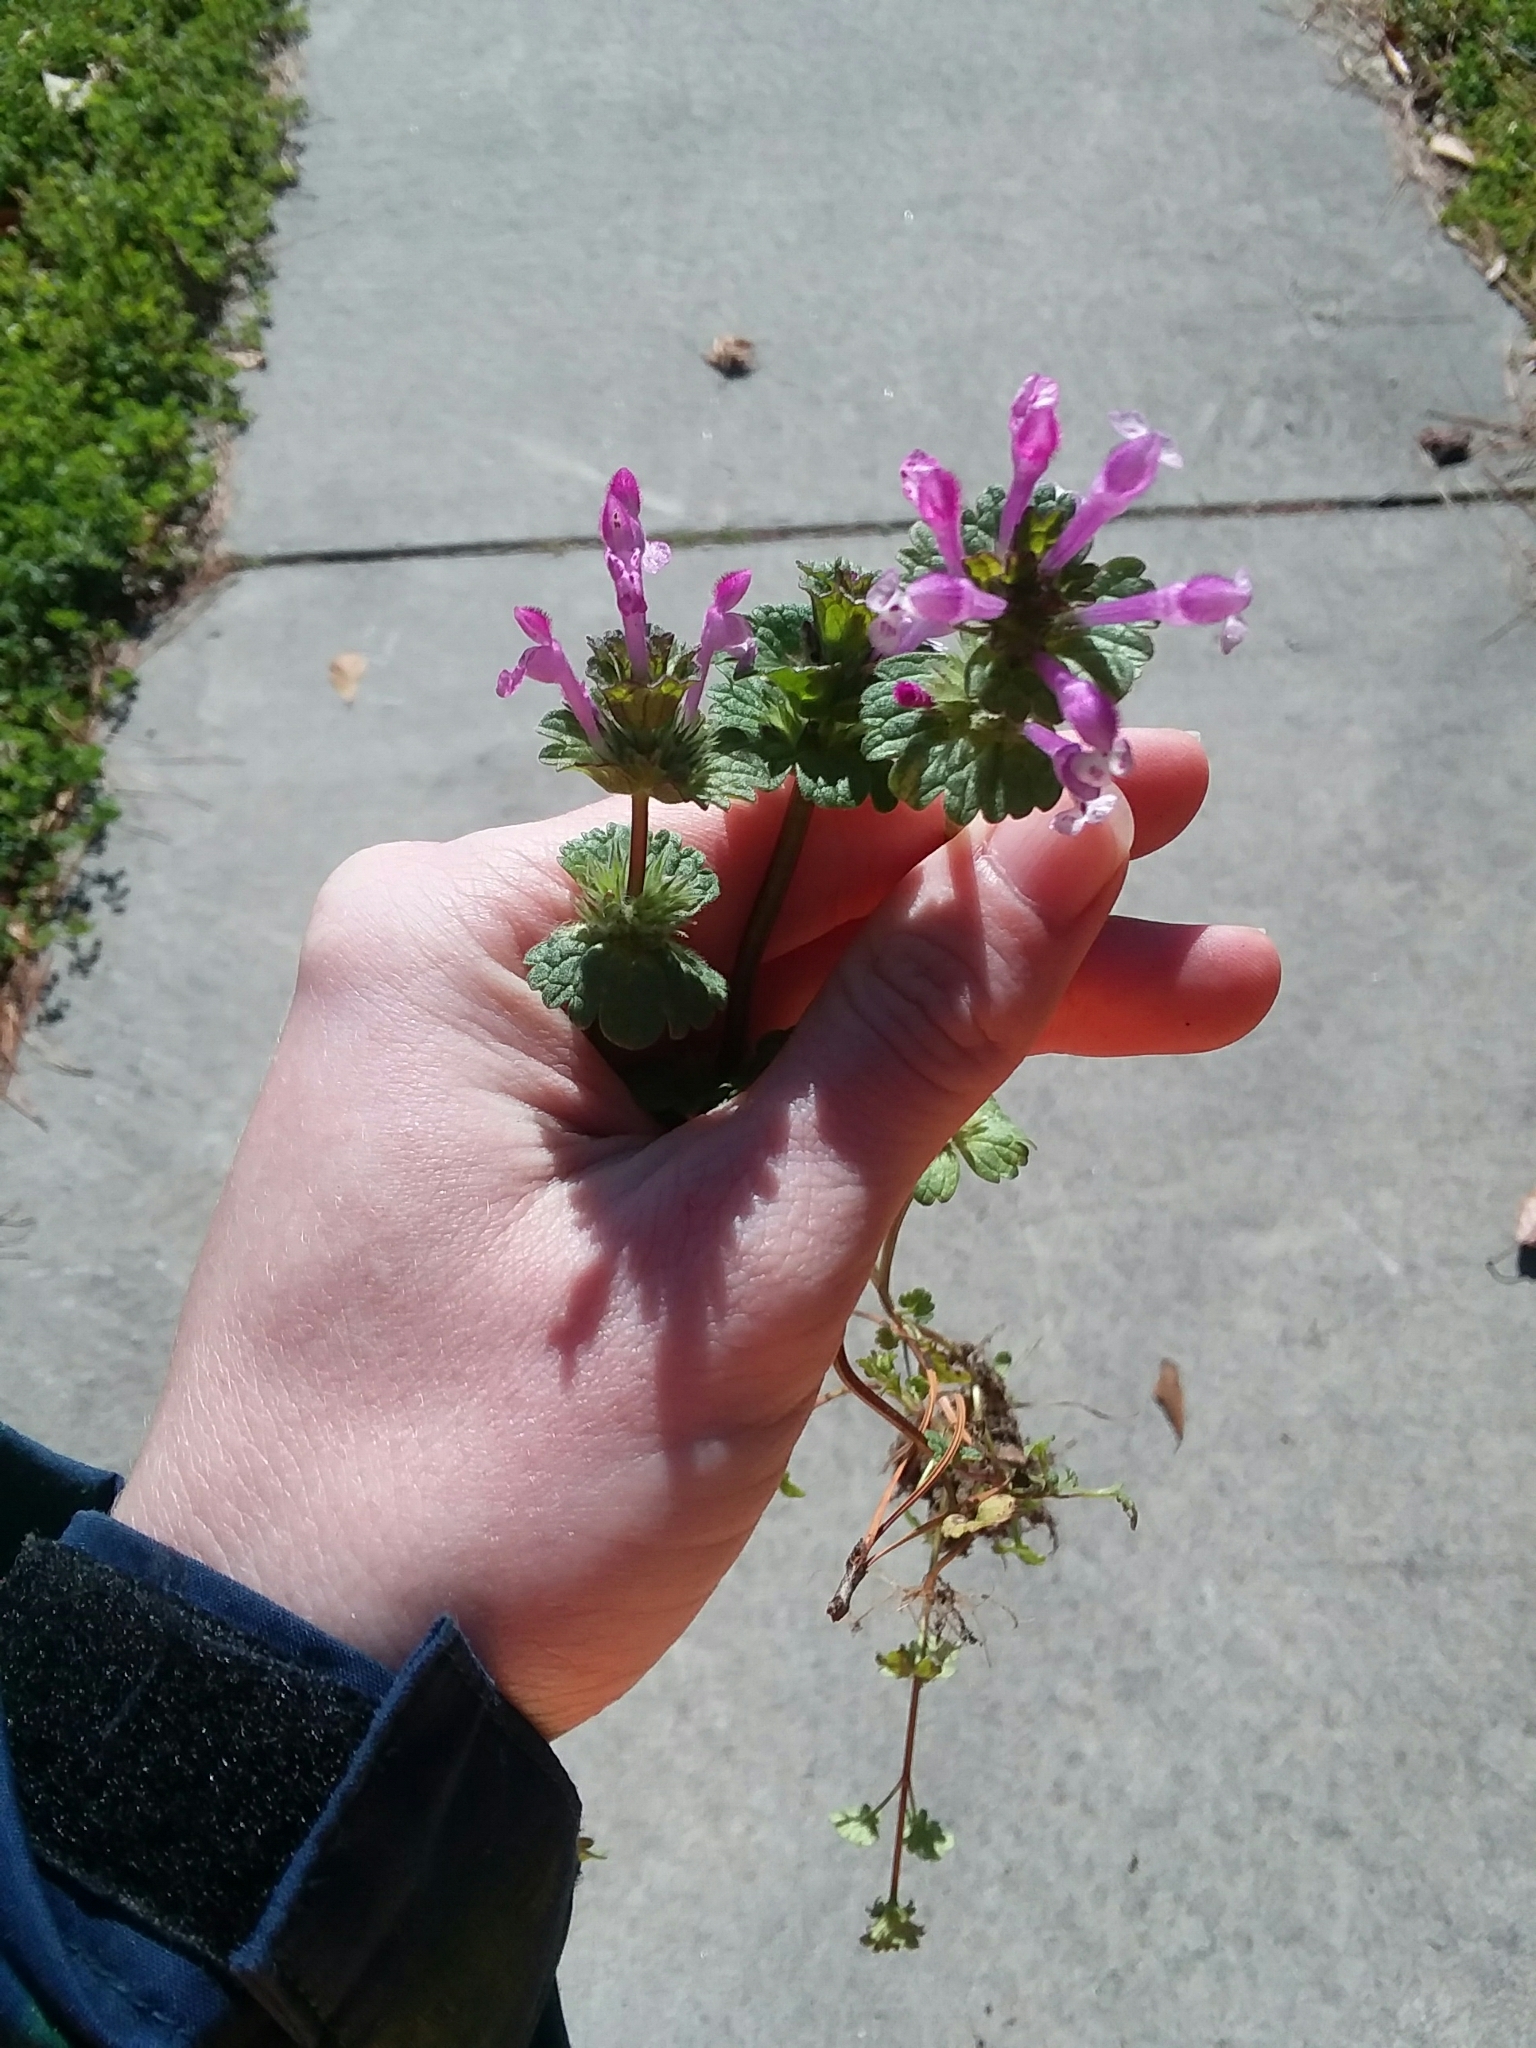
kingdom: Plantae
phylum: Tracheophyta
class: Magnoliopsida
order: Lamiales
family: Lamiaceae
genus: Lamium
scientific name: Lamium amplexicaule
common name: Henbit dead-nettle
